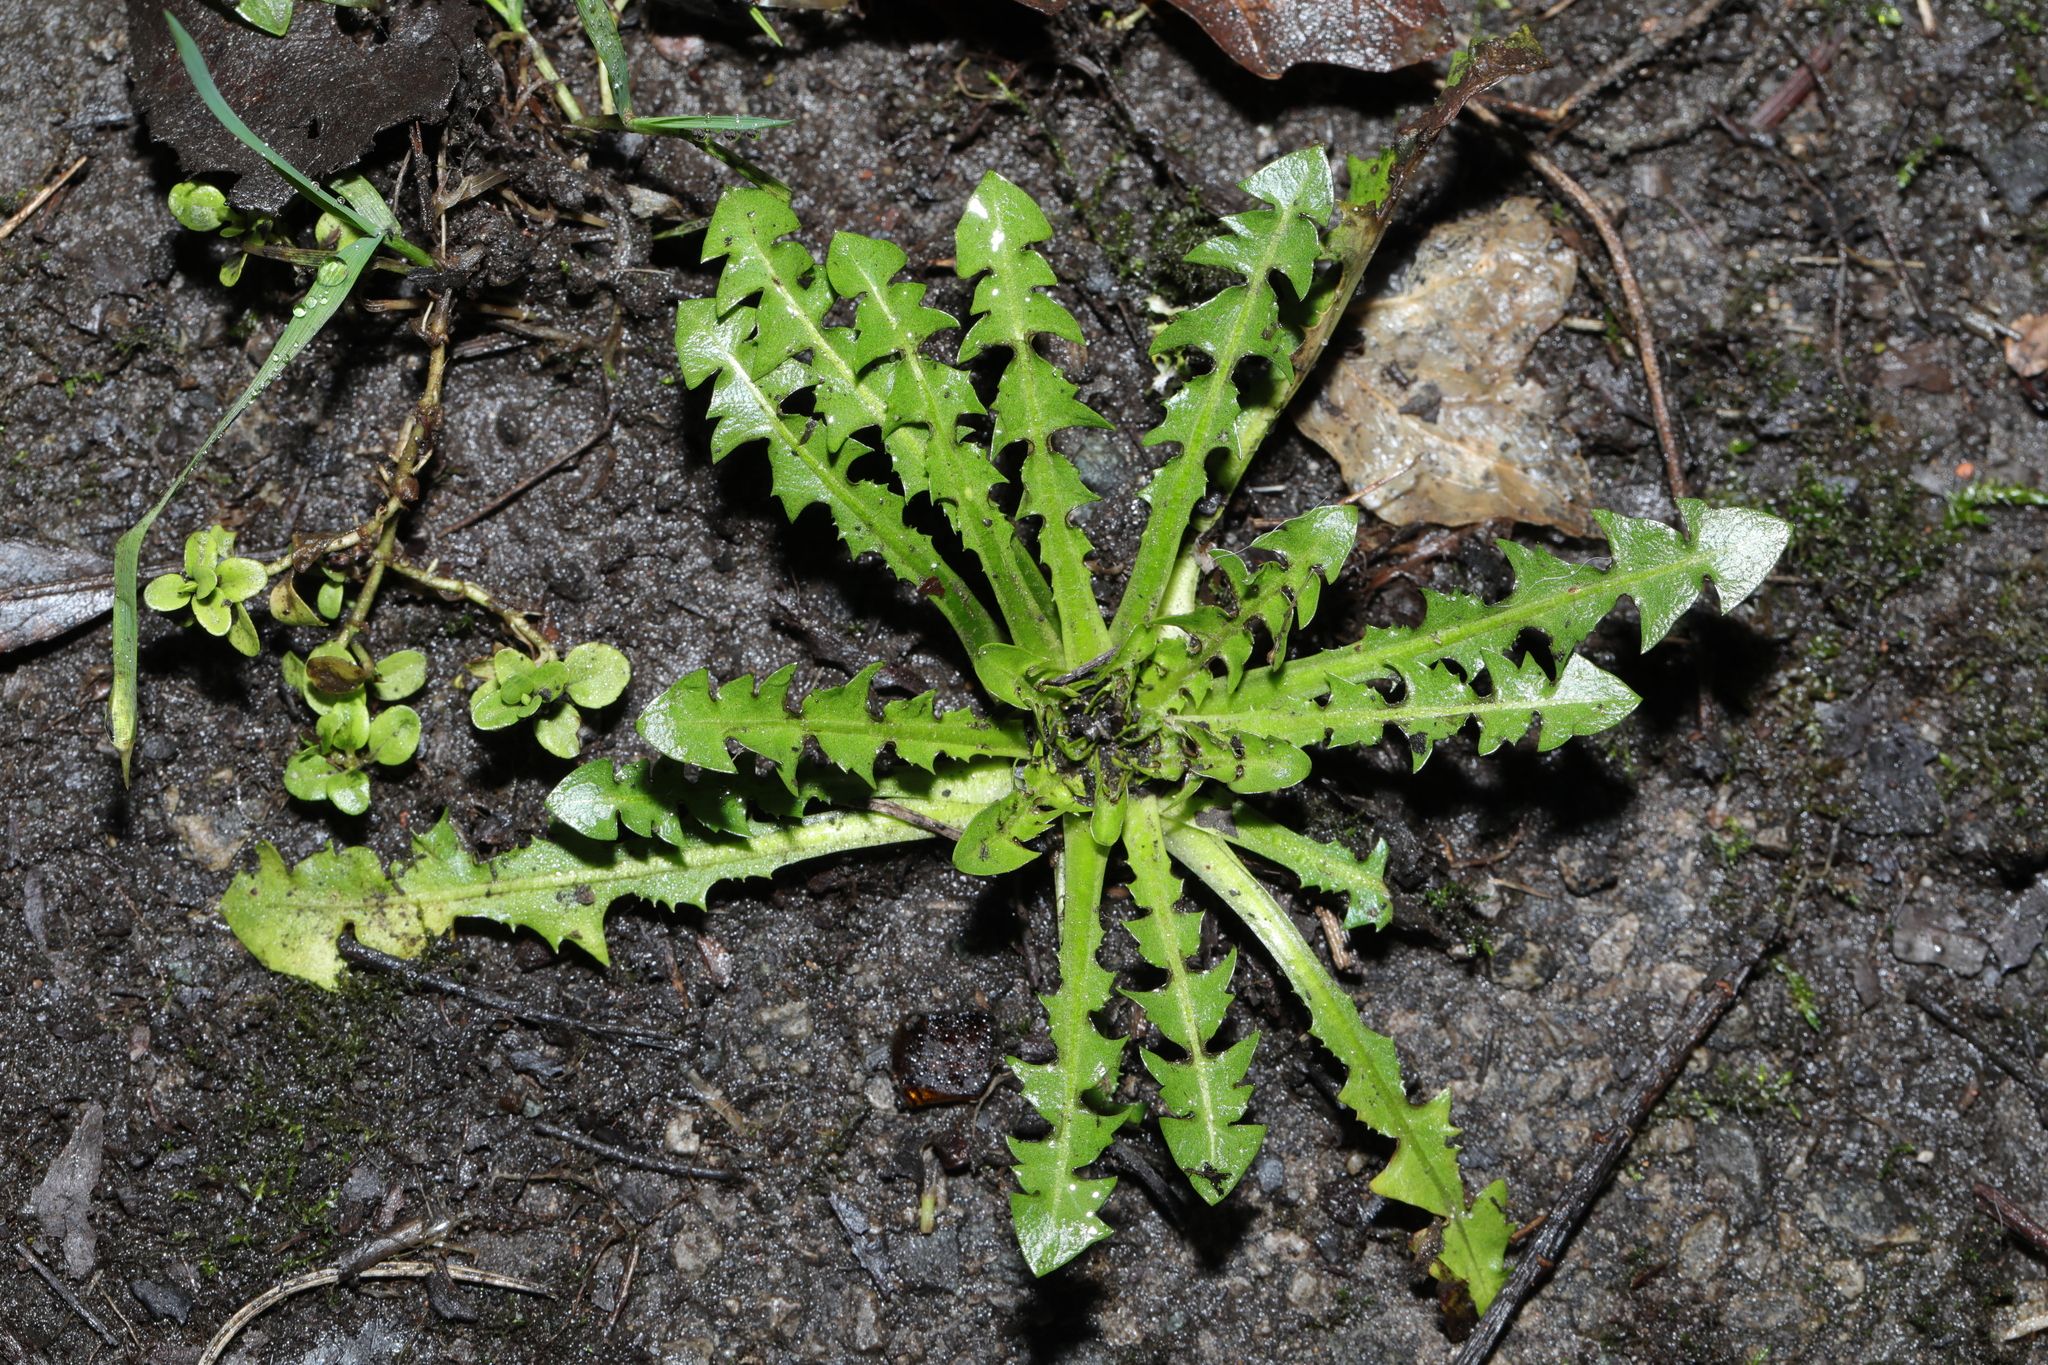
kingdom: Plantae
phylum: Tracheophyta
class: Magnoliopsida
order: Asterales
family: Asteraceae
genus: Taraxacum
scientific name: Taraxacum officinale
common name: Common dandelion
